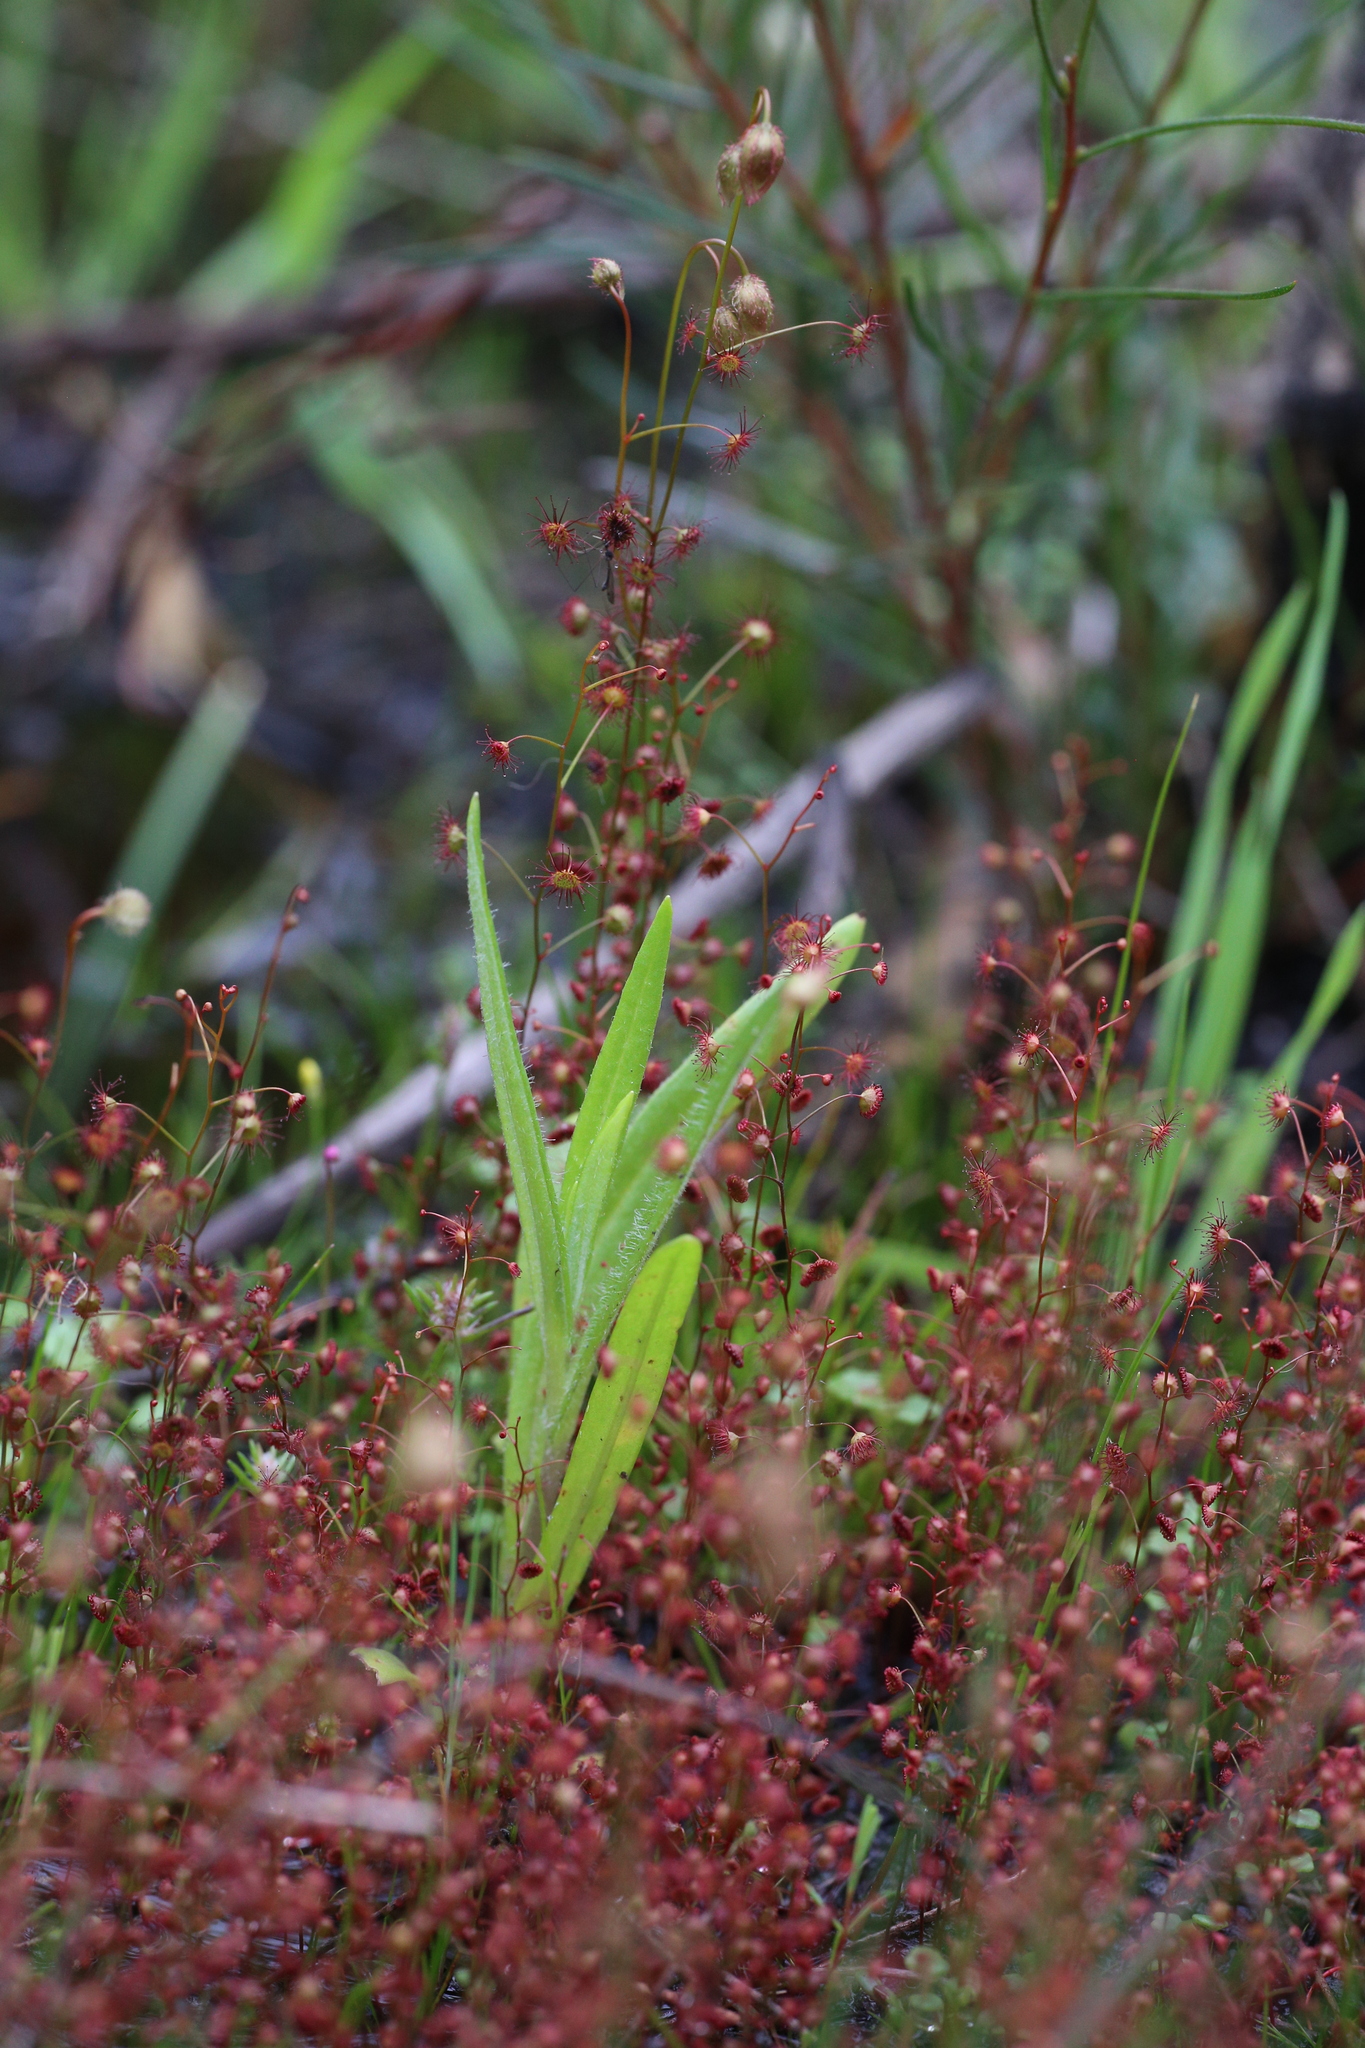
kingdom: Plantae
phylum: Tracheophyta
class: Magnoliopsida
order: Caryophyllales
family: Droseraceae
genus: Drosera
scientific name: Drosera menziesii
